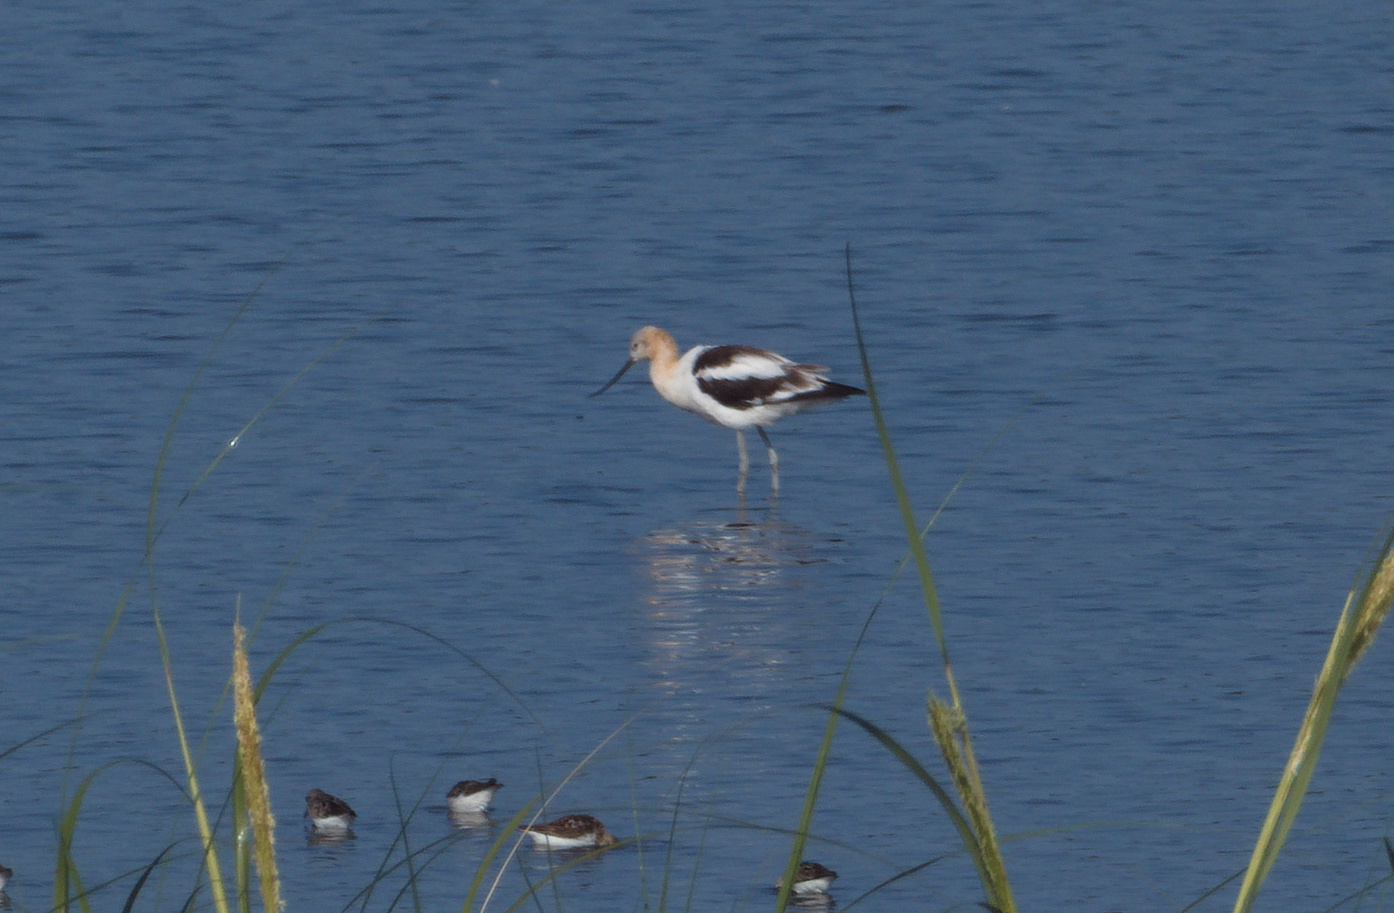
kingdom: Animalia
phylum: Chordata
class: Aves
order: Charadriiformes
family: Recurvirostridae
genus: Recurvirostra
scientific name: Recurvirostra americana
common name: American avocet
